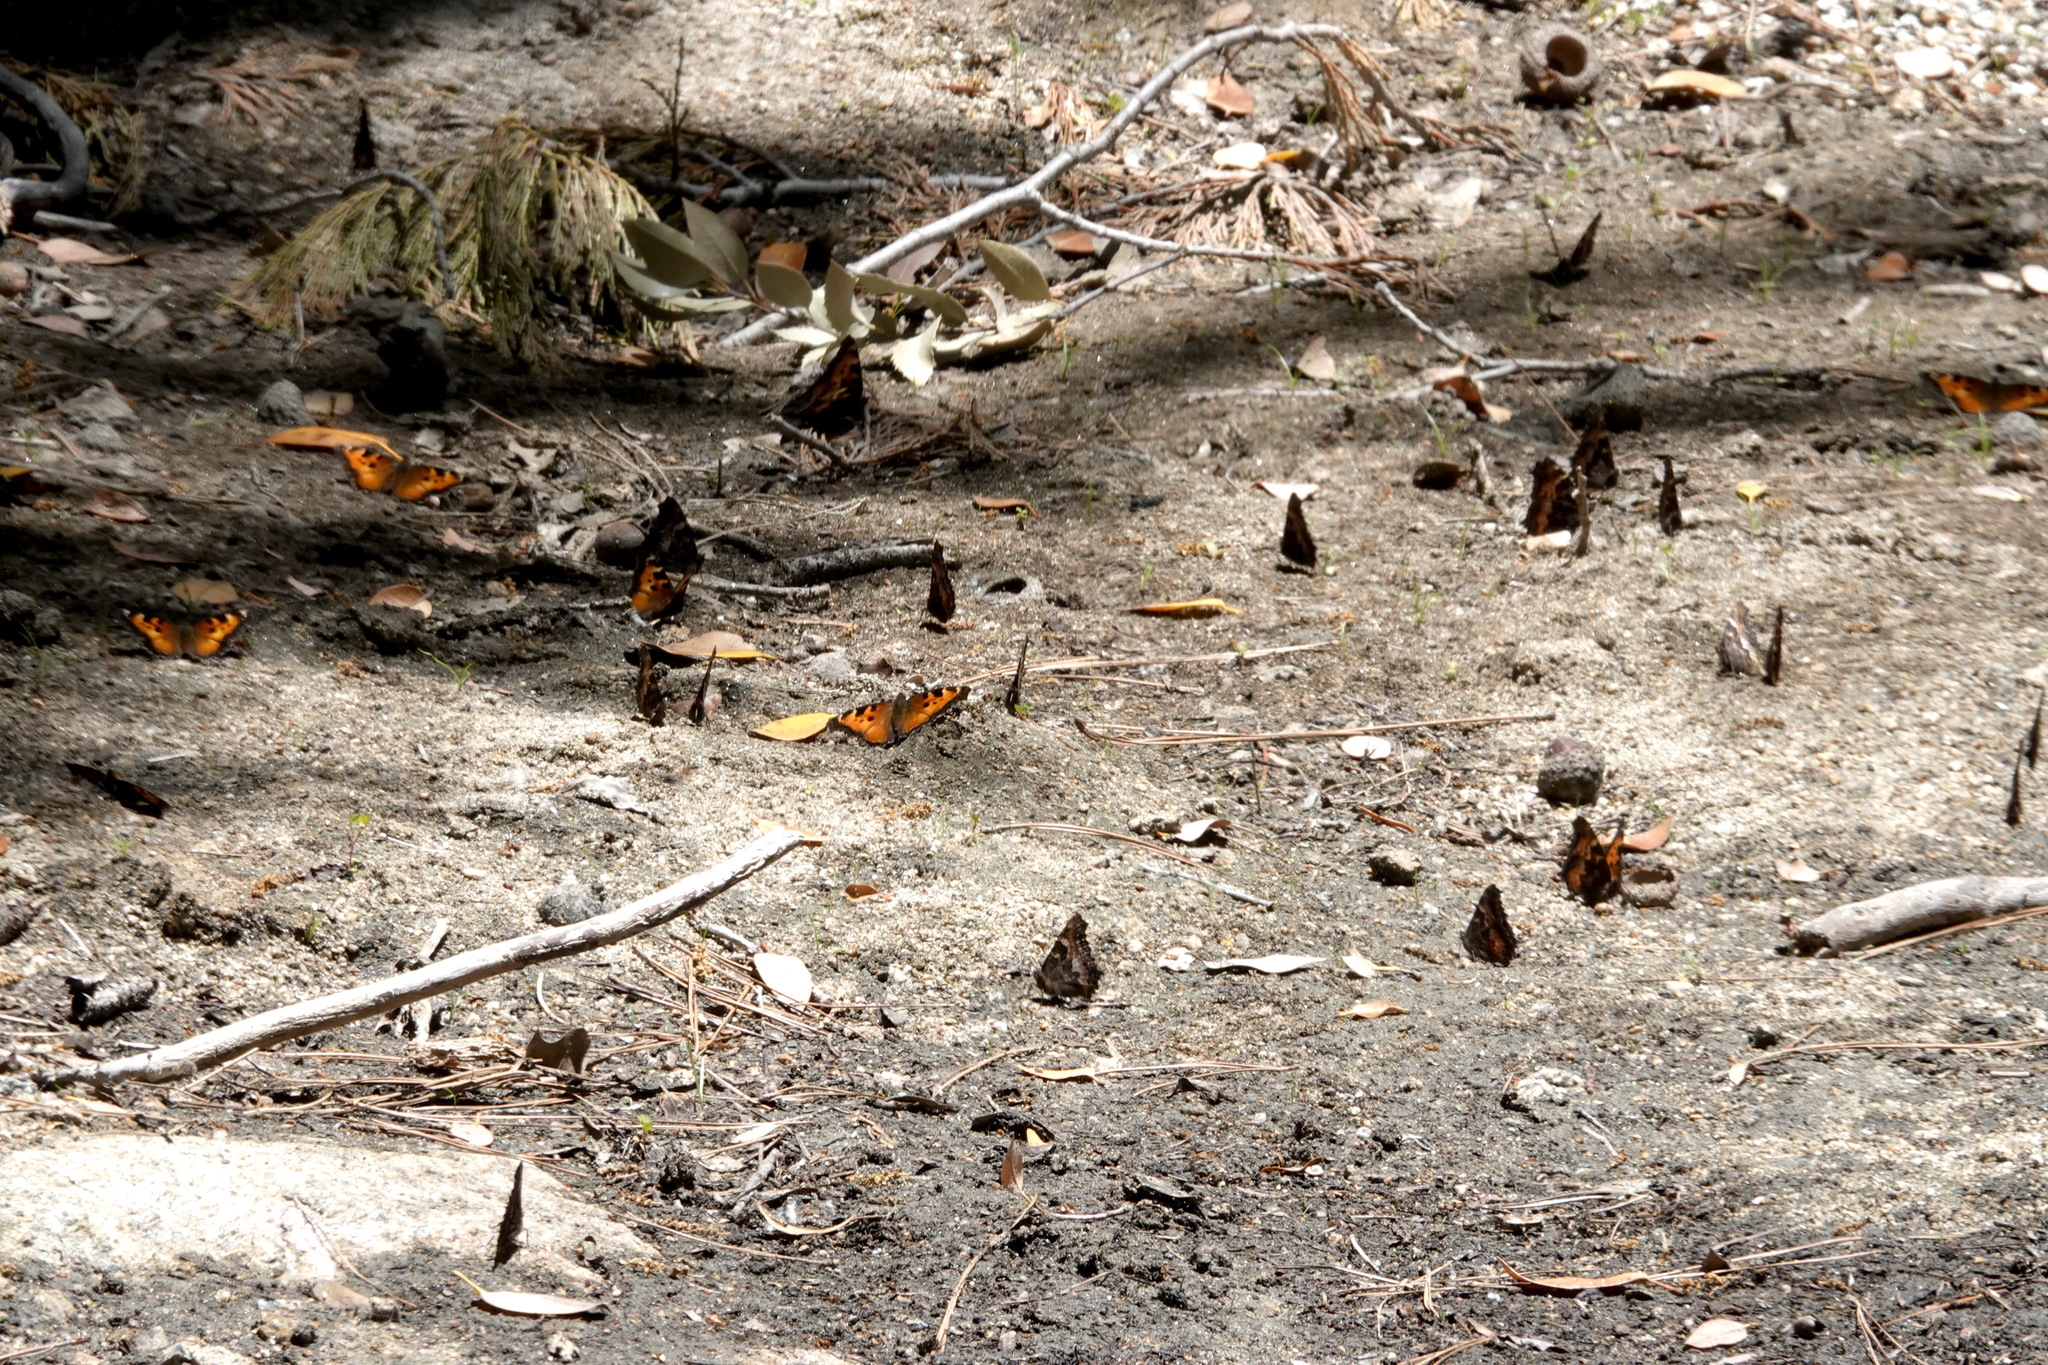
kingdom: Animalia
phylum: Arthropoda
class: Insecta
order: Lepidoptera
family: Nymphalidae
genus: Nymphalis
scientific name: Nymphalis californica
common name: California tortoiseshell
